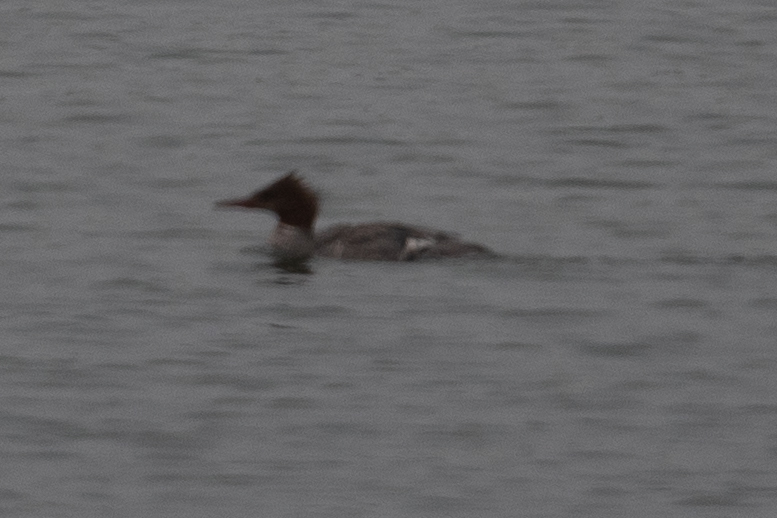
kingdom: Animalia
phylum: Chordata
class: Aves
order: Anseriformes
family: Anatidae
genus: Mergus
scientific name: Mergus merganser
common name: Common merganser
